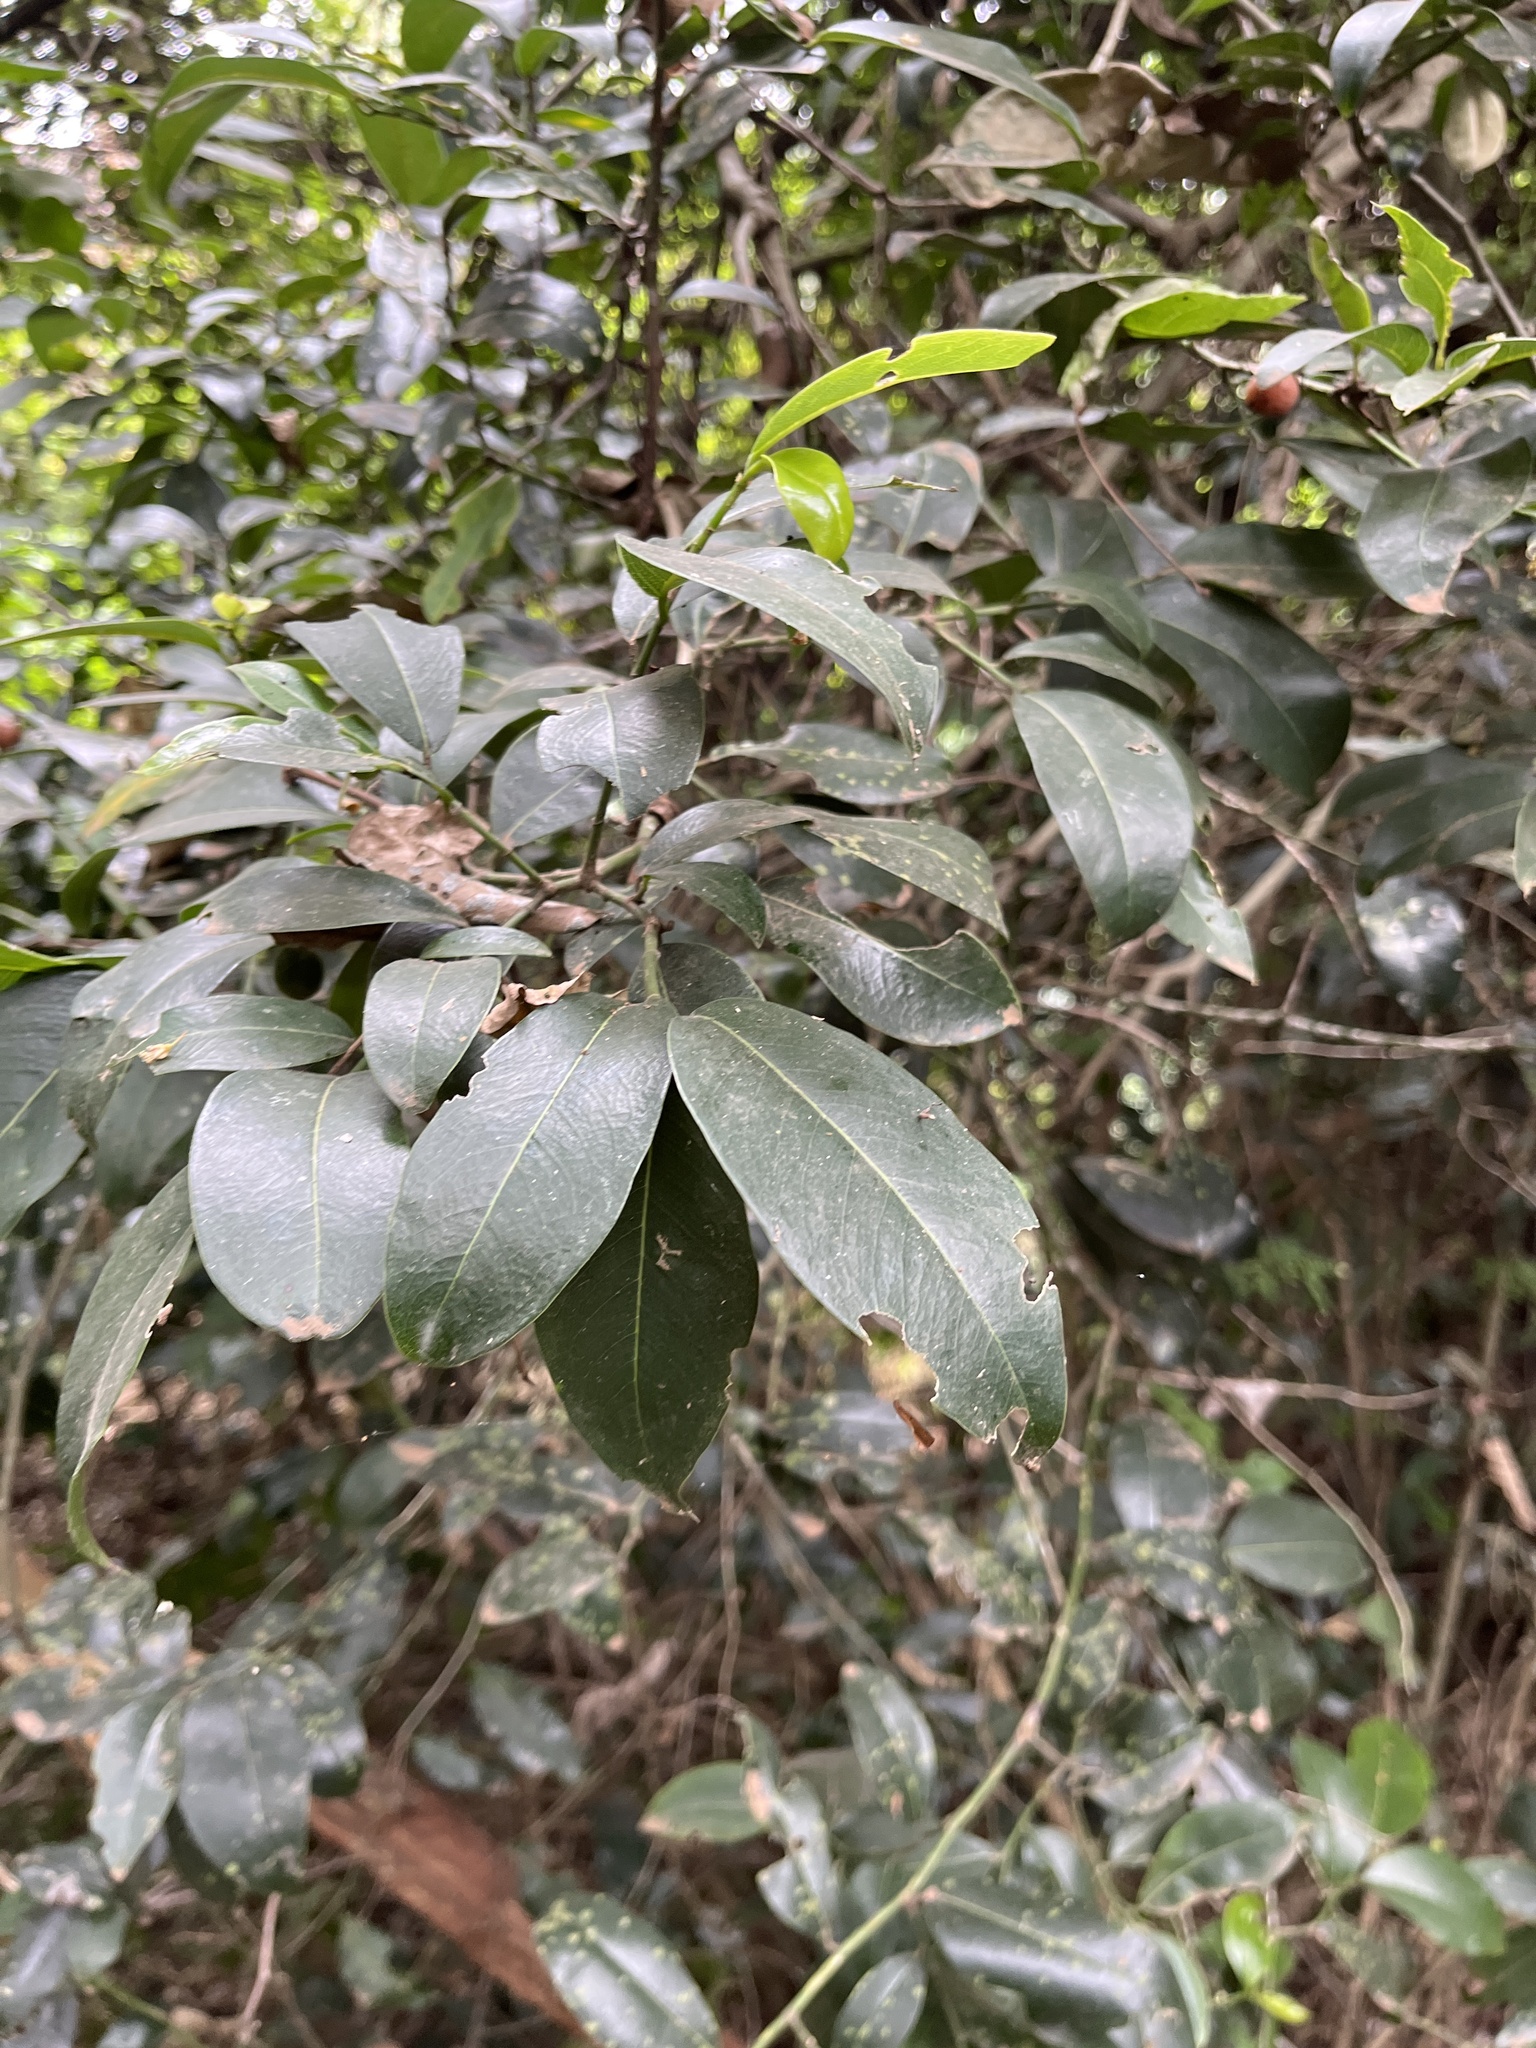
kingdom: Plantae
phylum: Tracheophyta
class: Magnoliopsida
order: Rosales
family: Cannabaceae
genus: Chaetachme
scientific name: Chaetachme aristata
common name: Thorny elm
